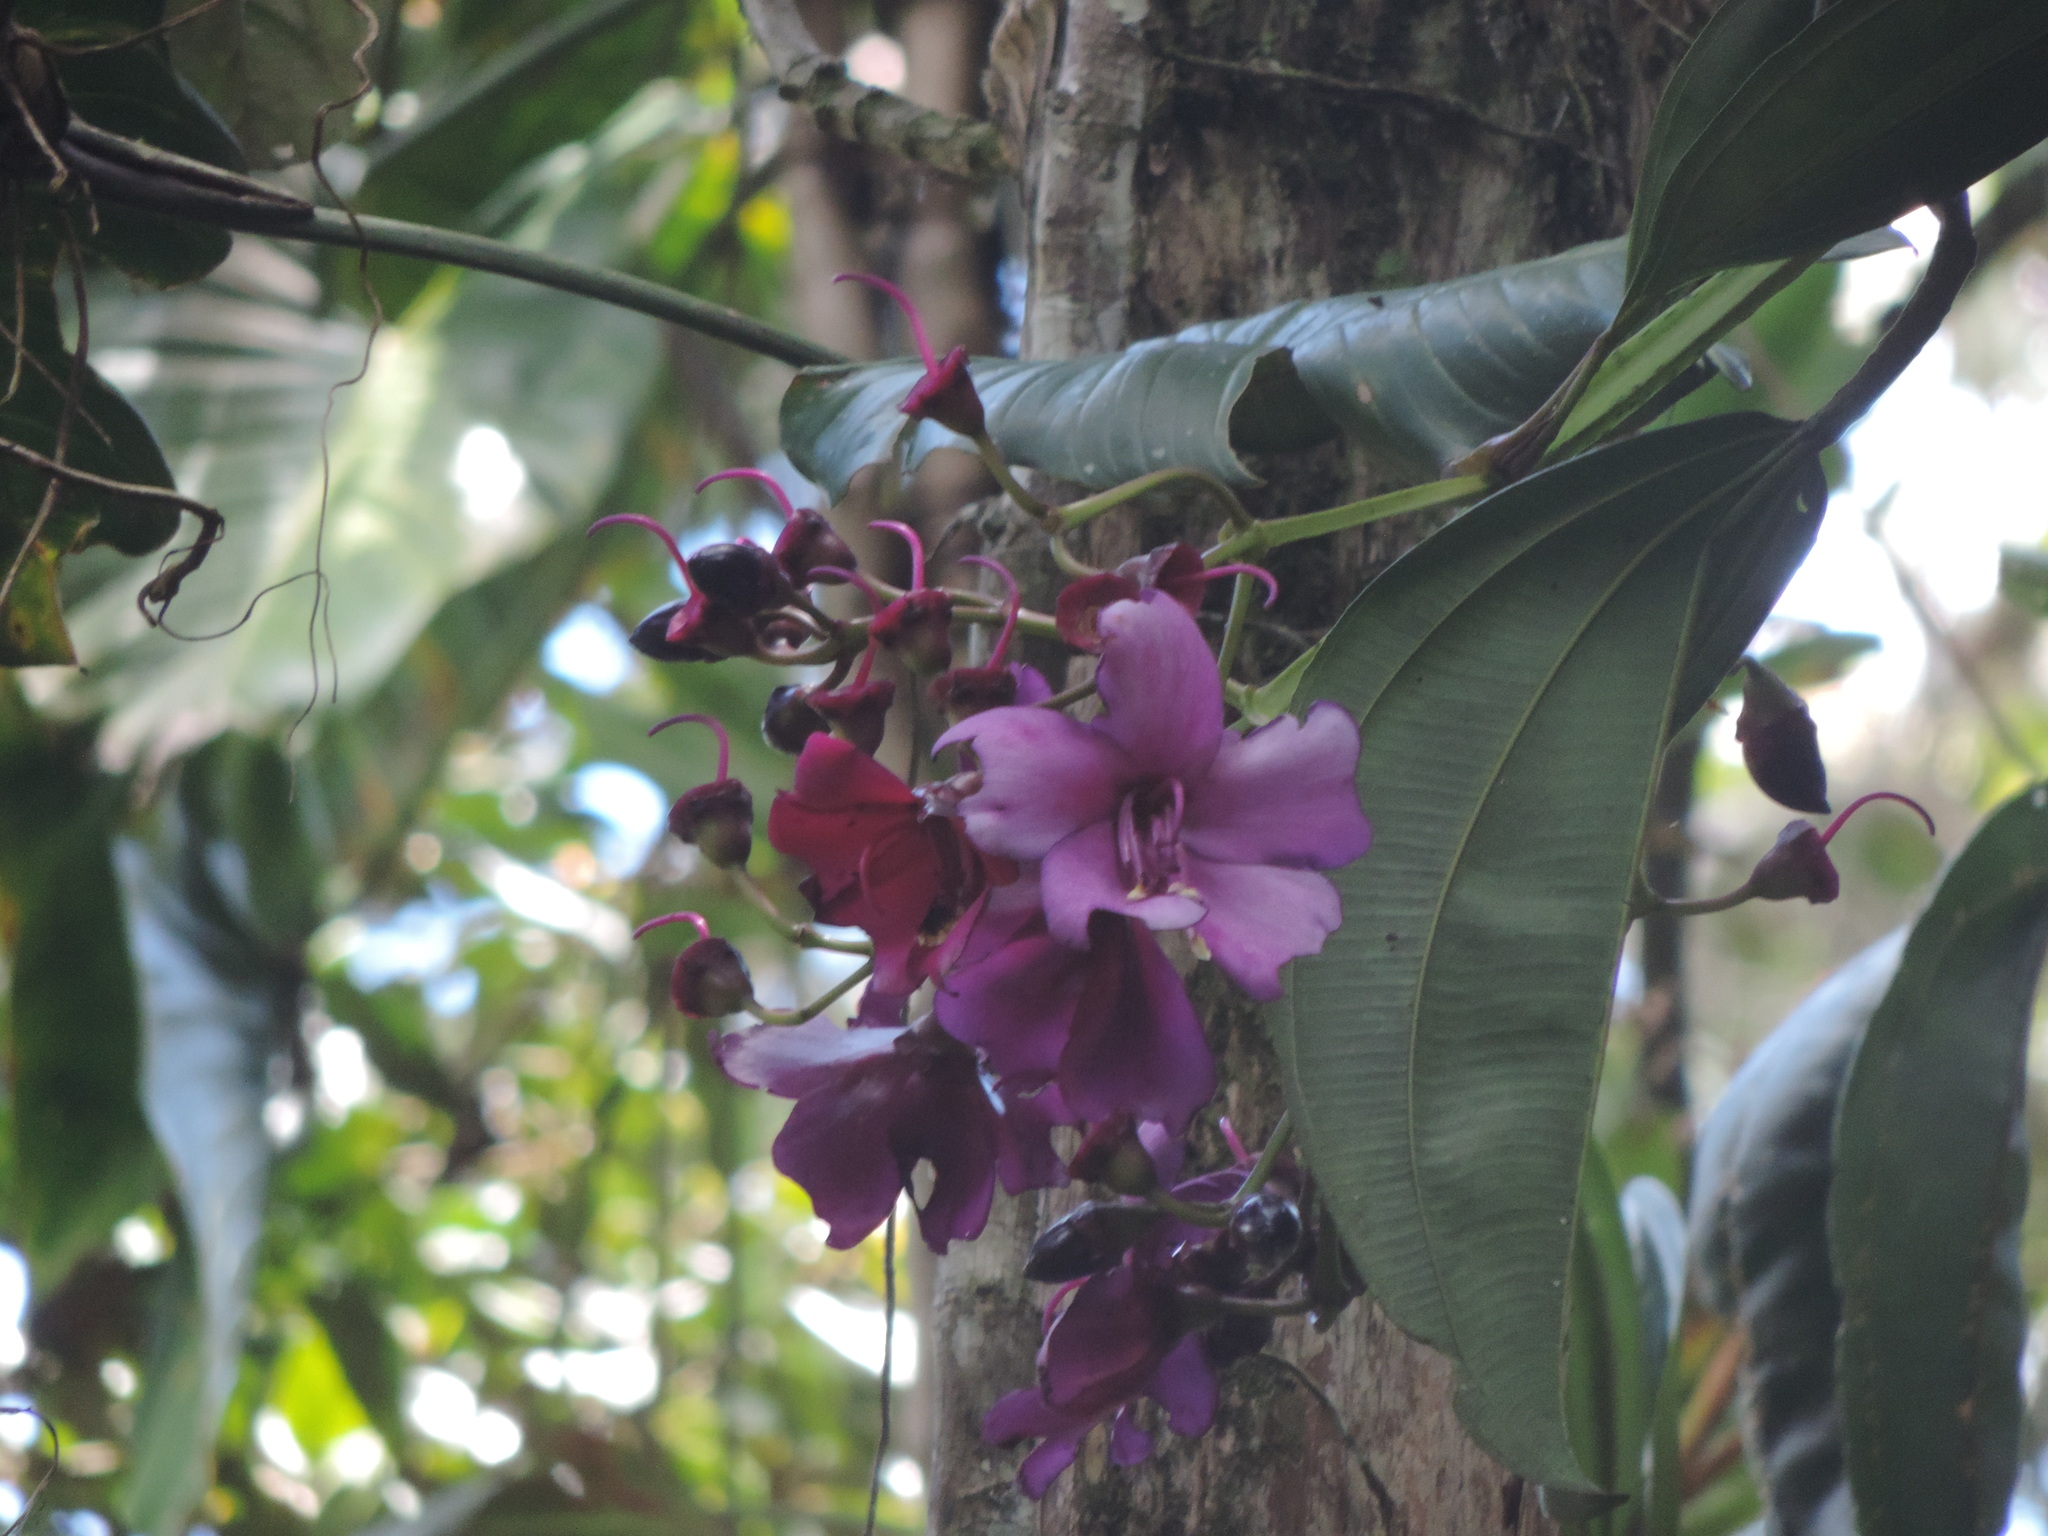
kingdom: Plantae
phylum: Tracheophyta
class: Magnoliopsida
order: Myrtales
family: Melastomataceae
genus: Meriania
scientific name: Meriania nobilis
